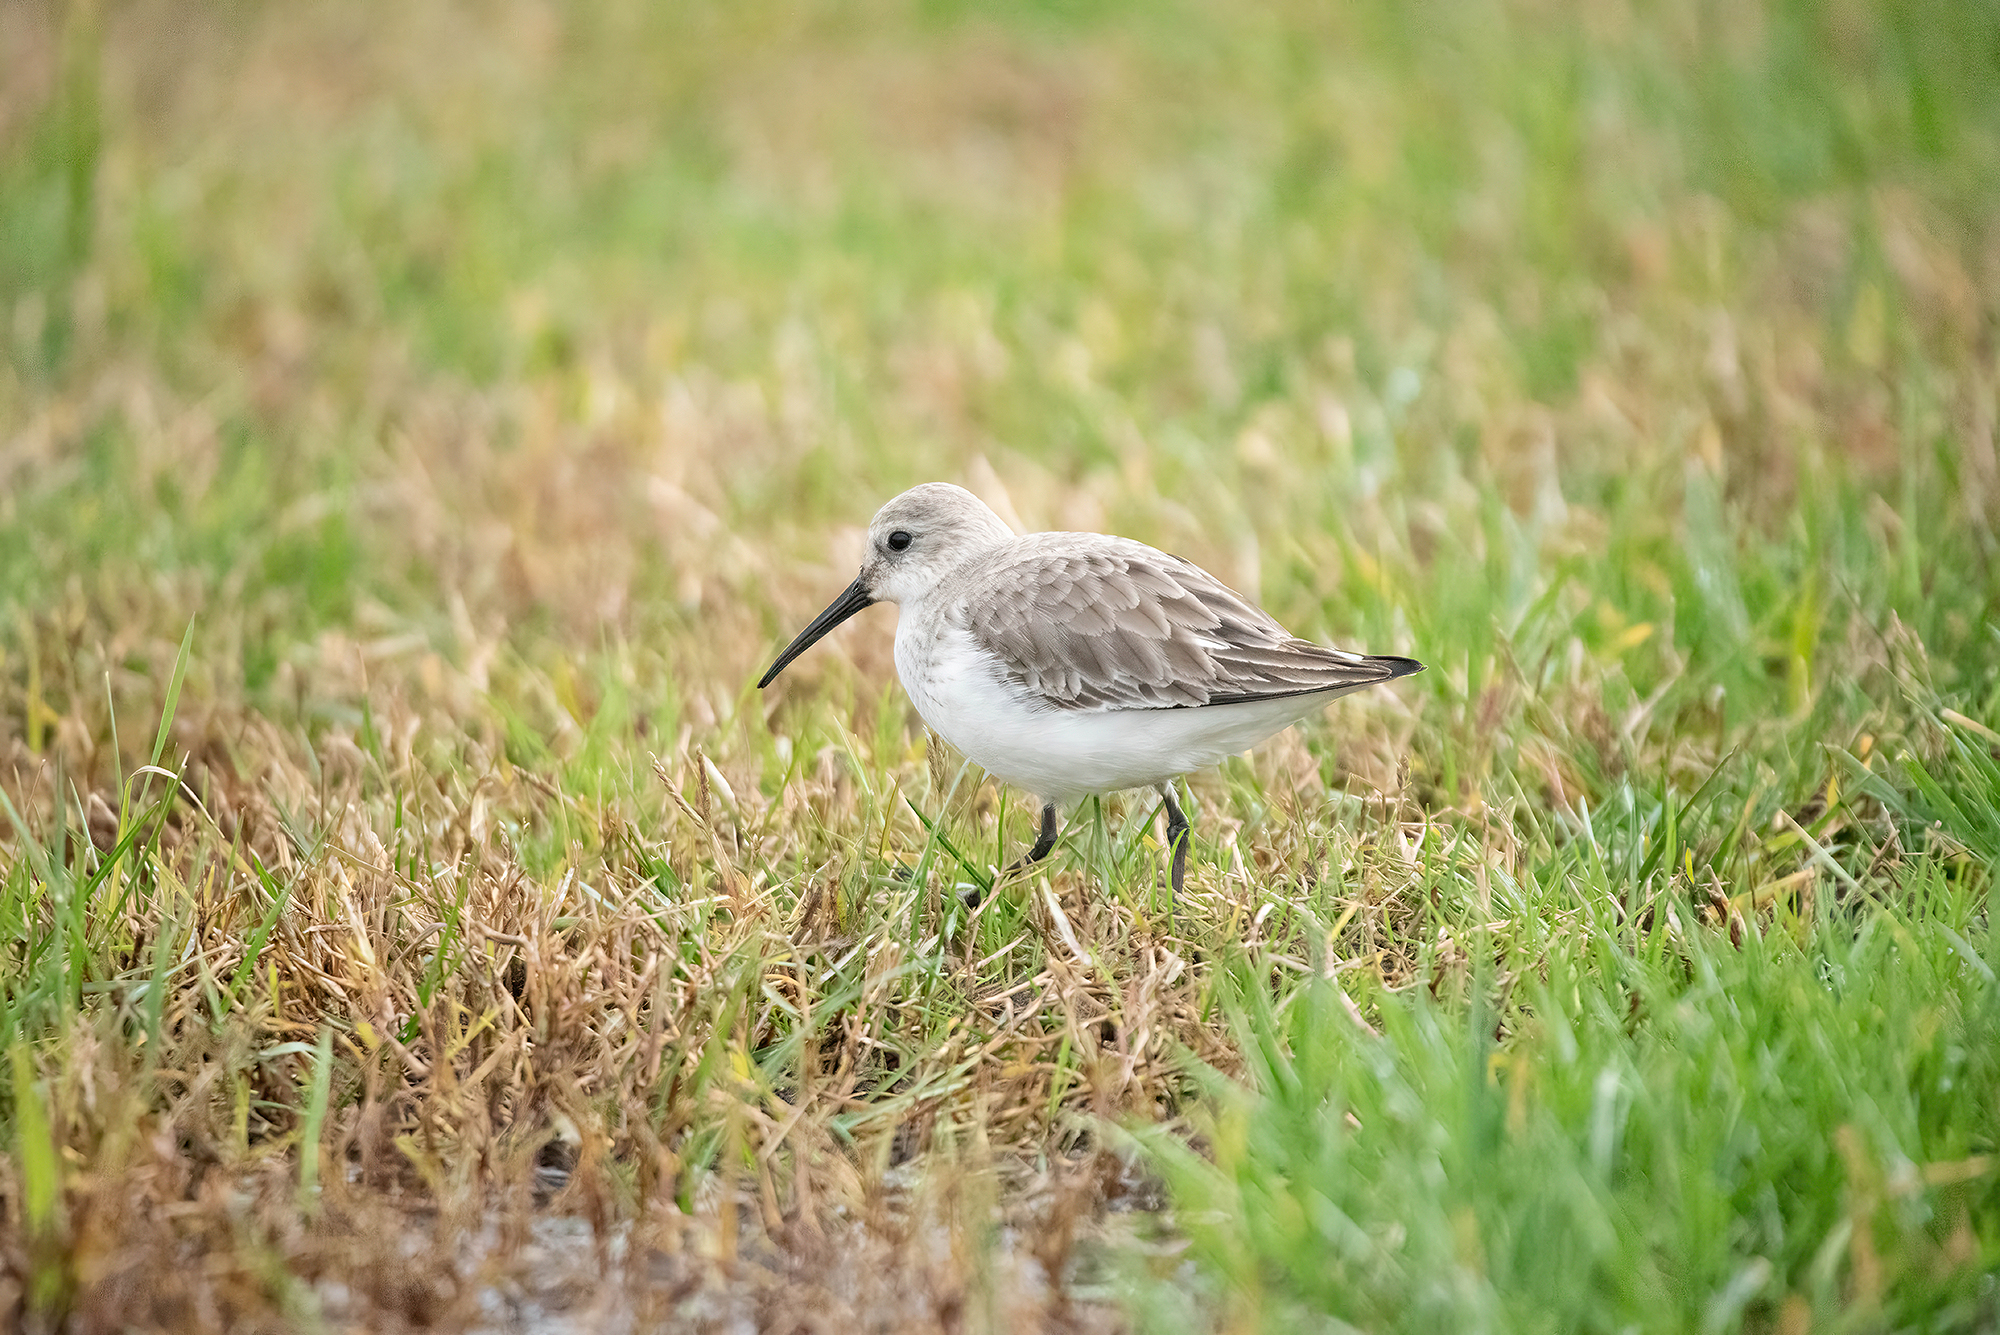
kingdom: Animalia
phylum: Chordata
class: Aves
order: Charadriiformes
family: Scolopacidae
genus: Calidris
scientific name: Calidris alpina
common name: Dunlin
